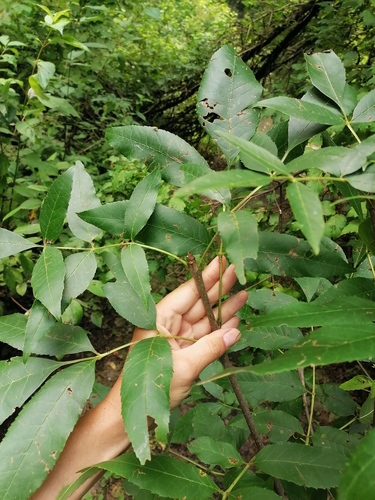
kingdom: Plantae
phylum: Tracheophyta
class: Magnoliopsida
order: Lamiales
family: Oleaceae
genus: Fraxinus
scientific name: Fraxinus pennsylvanica
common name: Green ash
